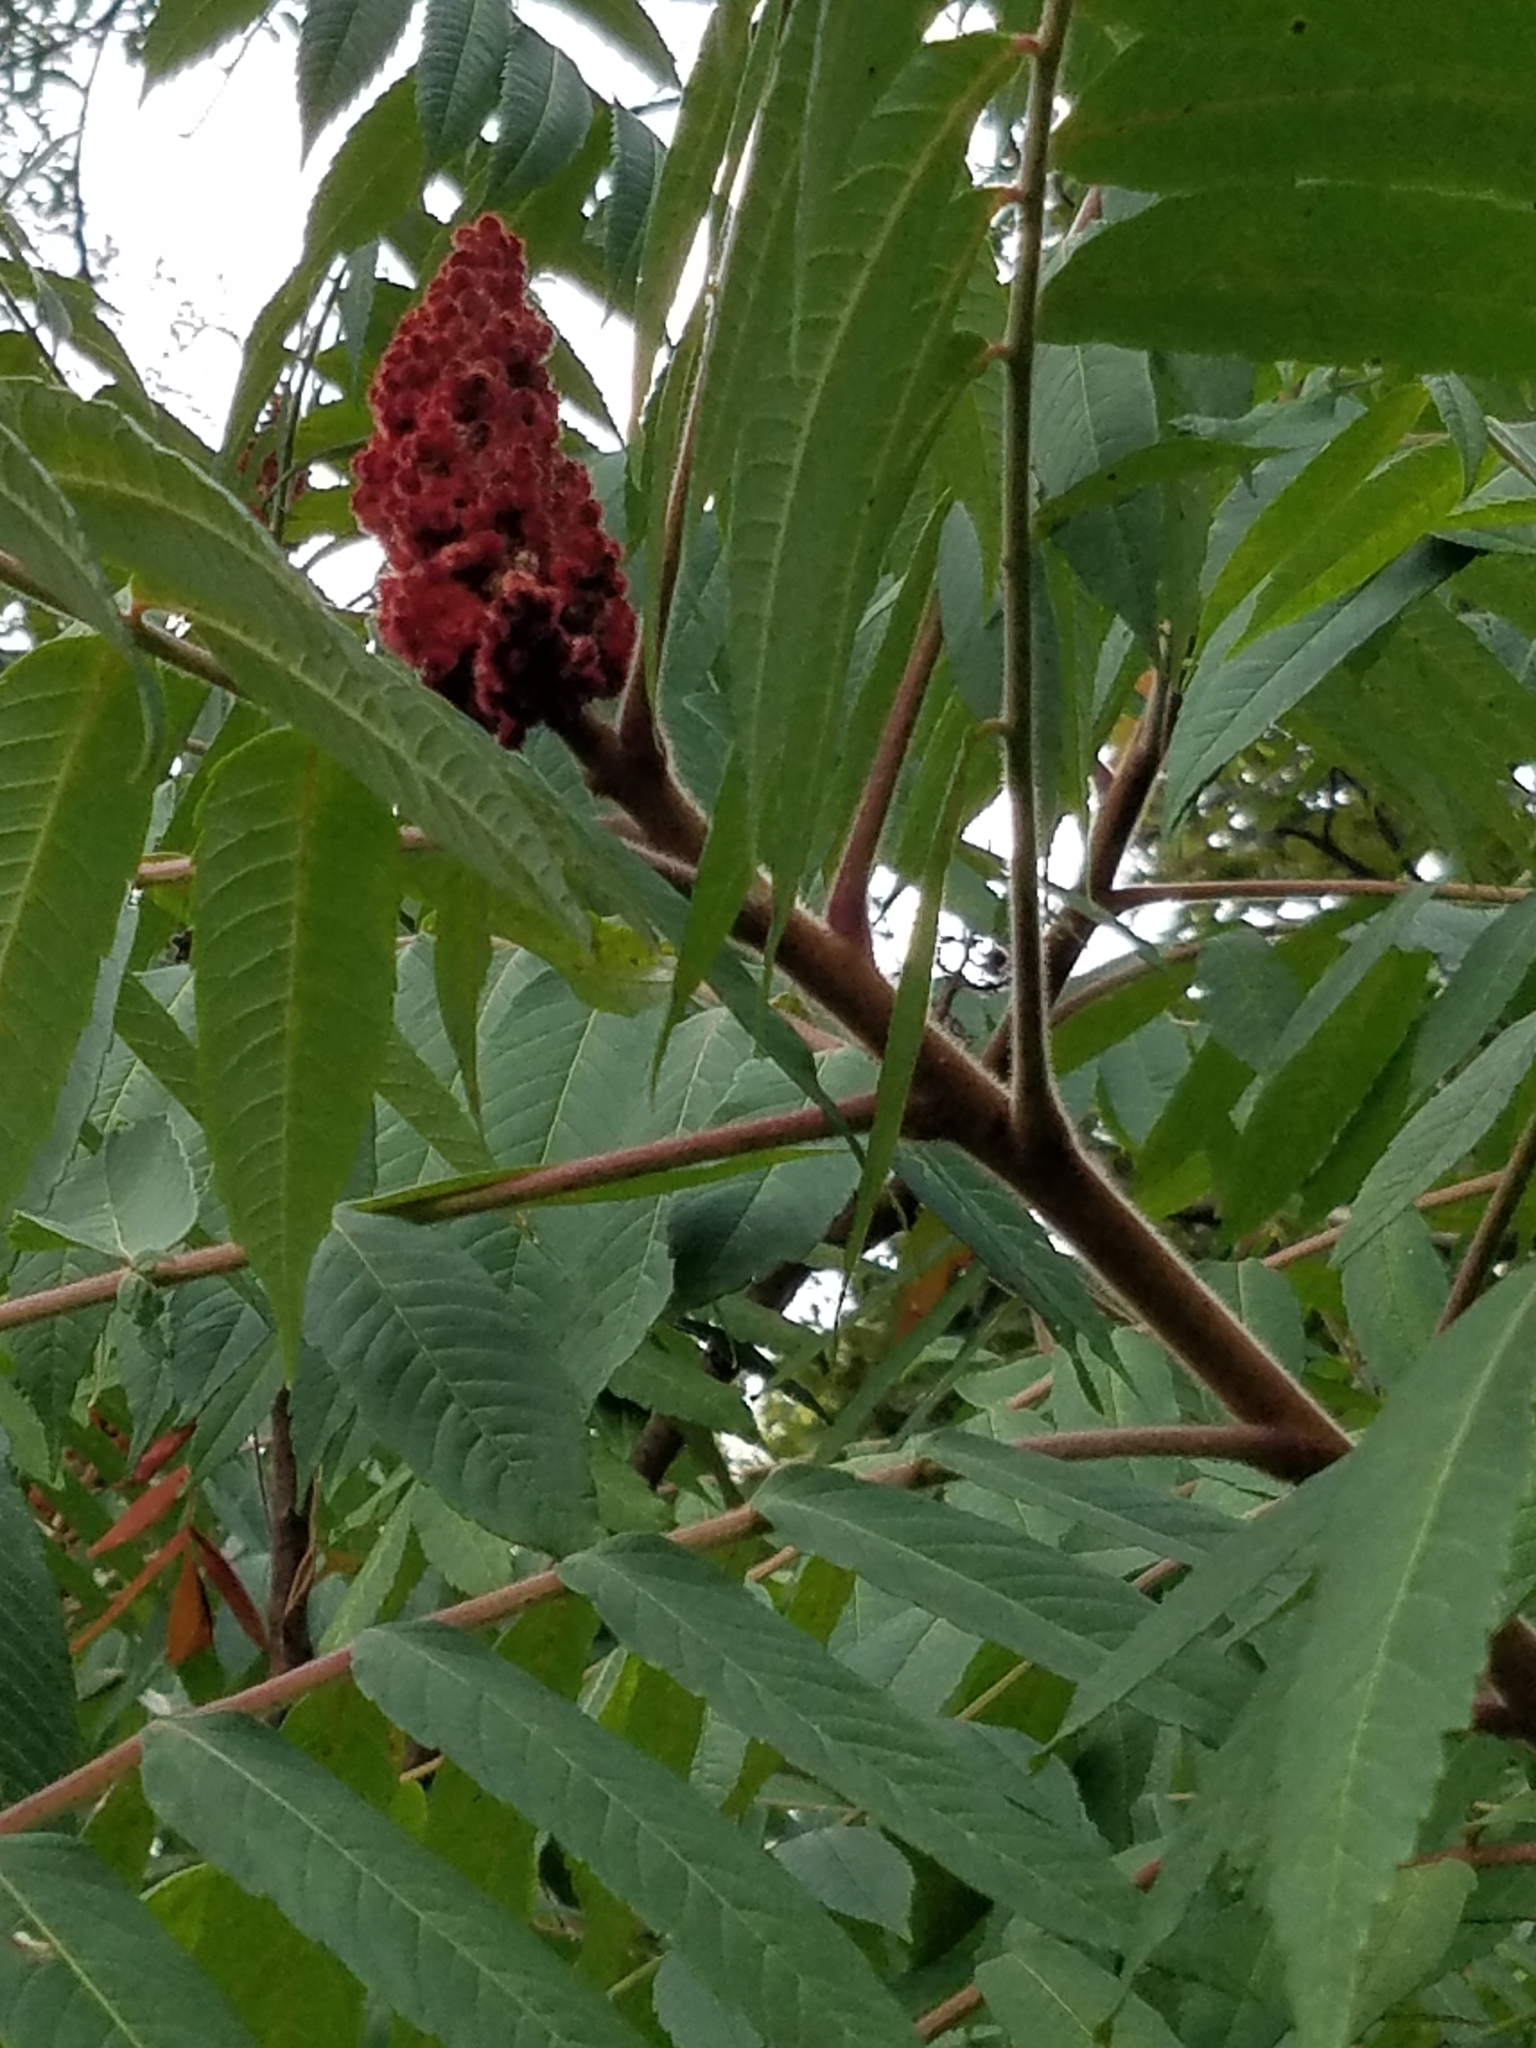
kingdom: Plantae
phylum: Tracheophyta
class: Magnoliopsida
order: Sapindales
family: Anacardiaceae
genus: Rhus
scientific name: Rhus typhina
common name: Staghorn sumac
